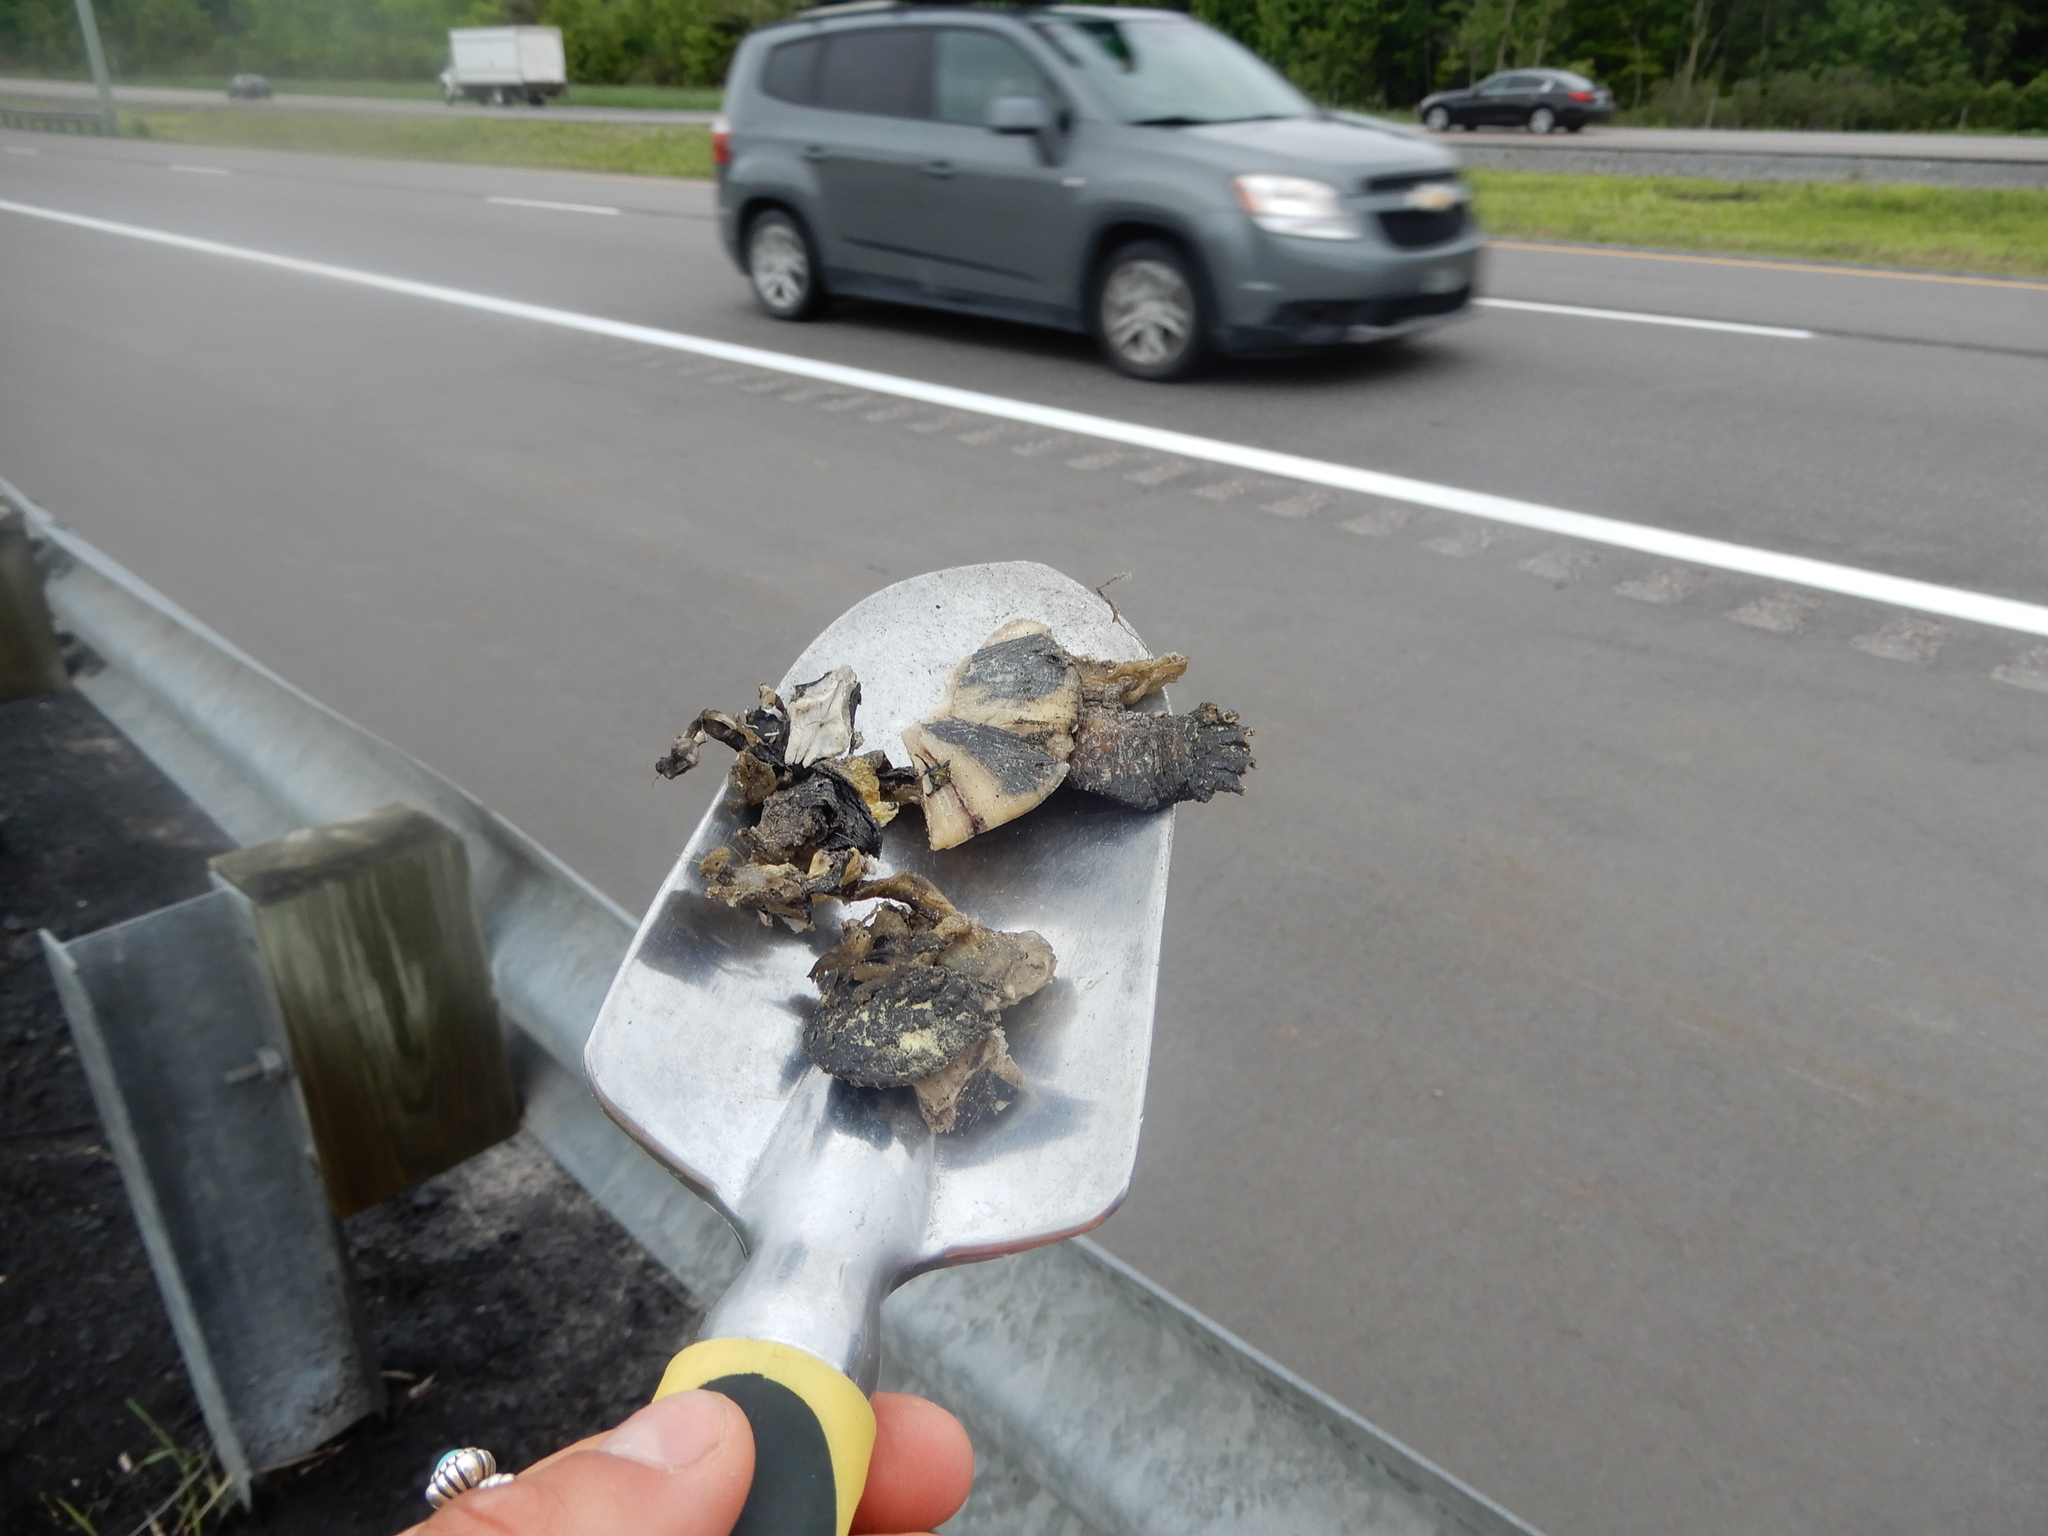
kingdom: Animalia
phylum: Chordata
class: Testudines
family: Emydidae
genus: Emys
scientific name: Emys blandingii
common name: Blanding's turtle
